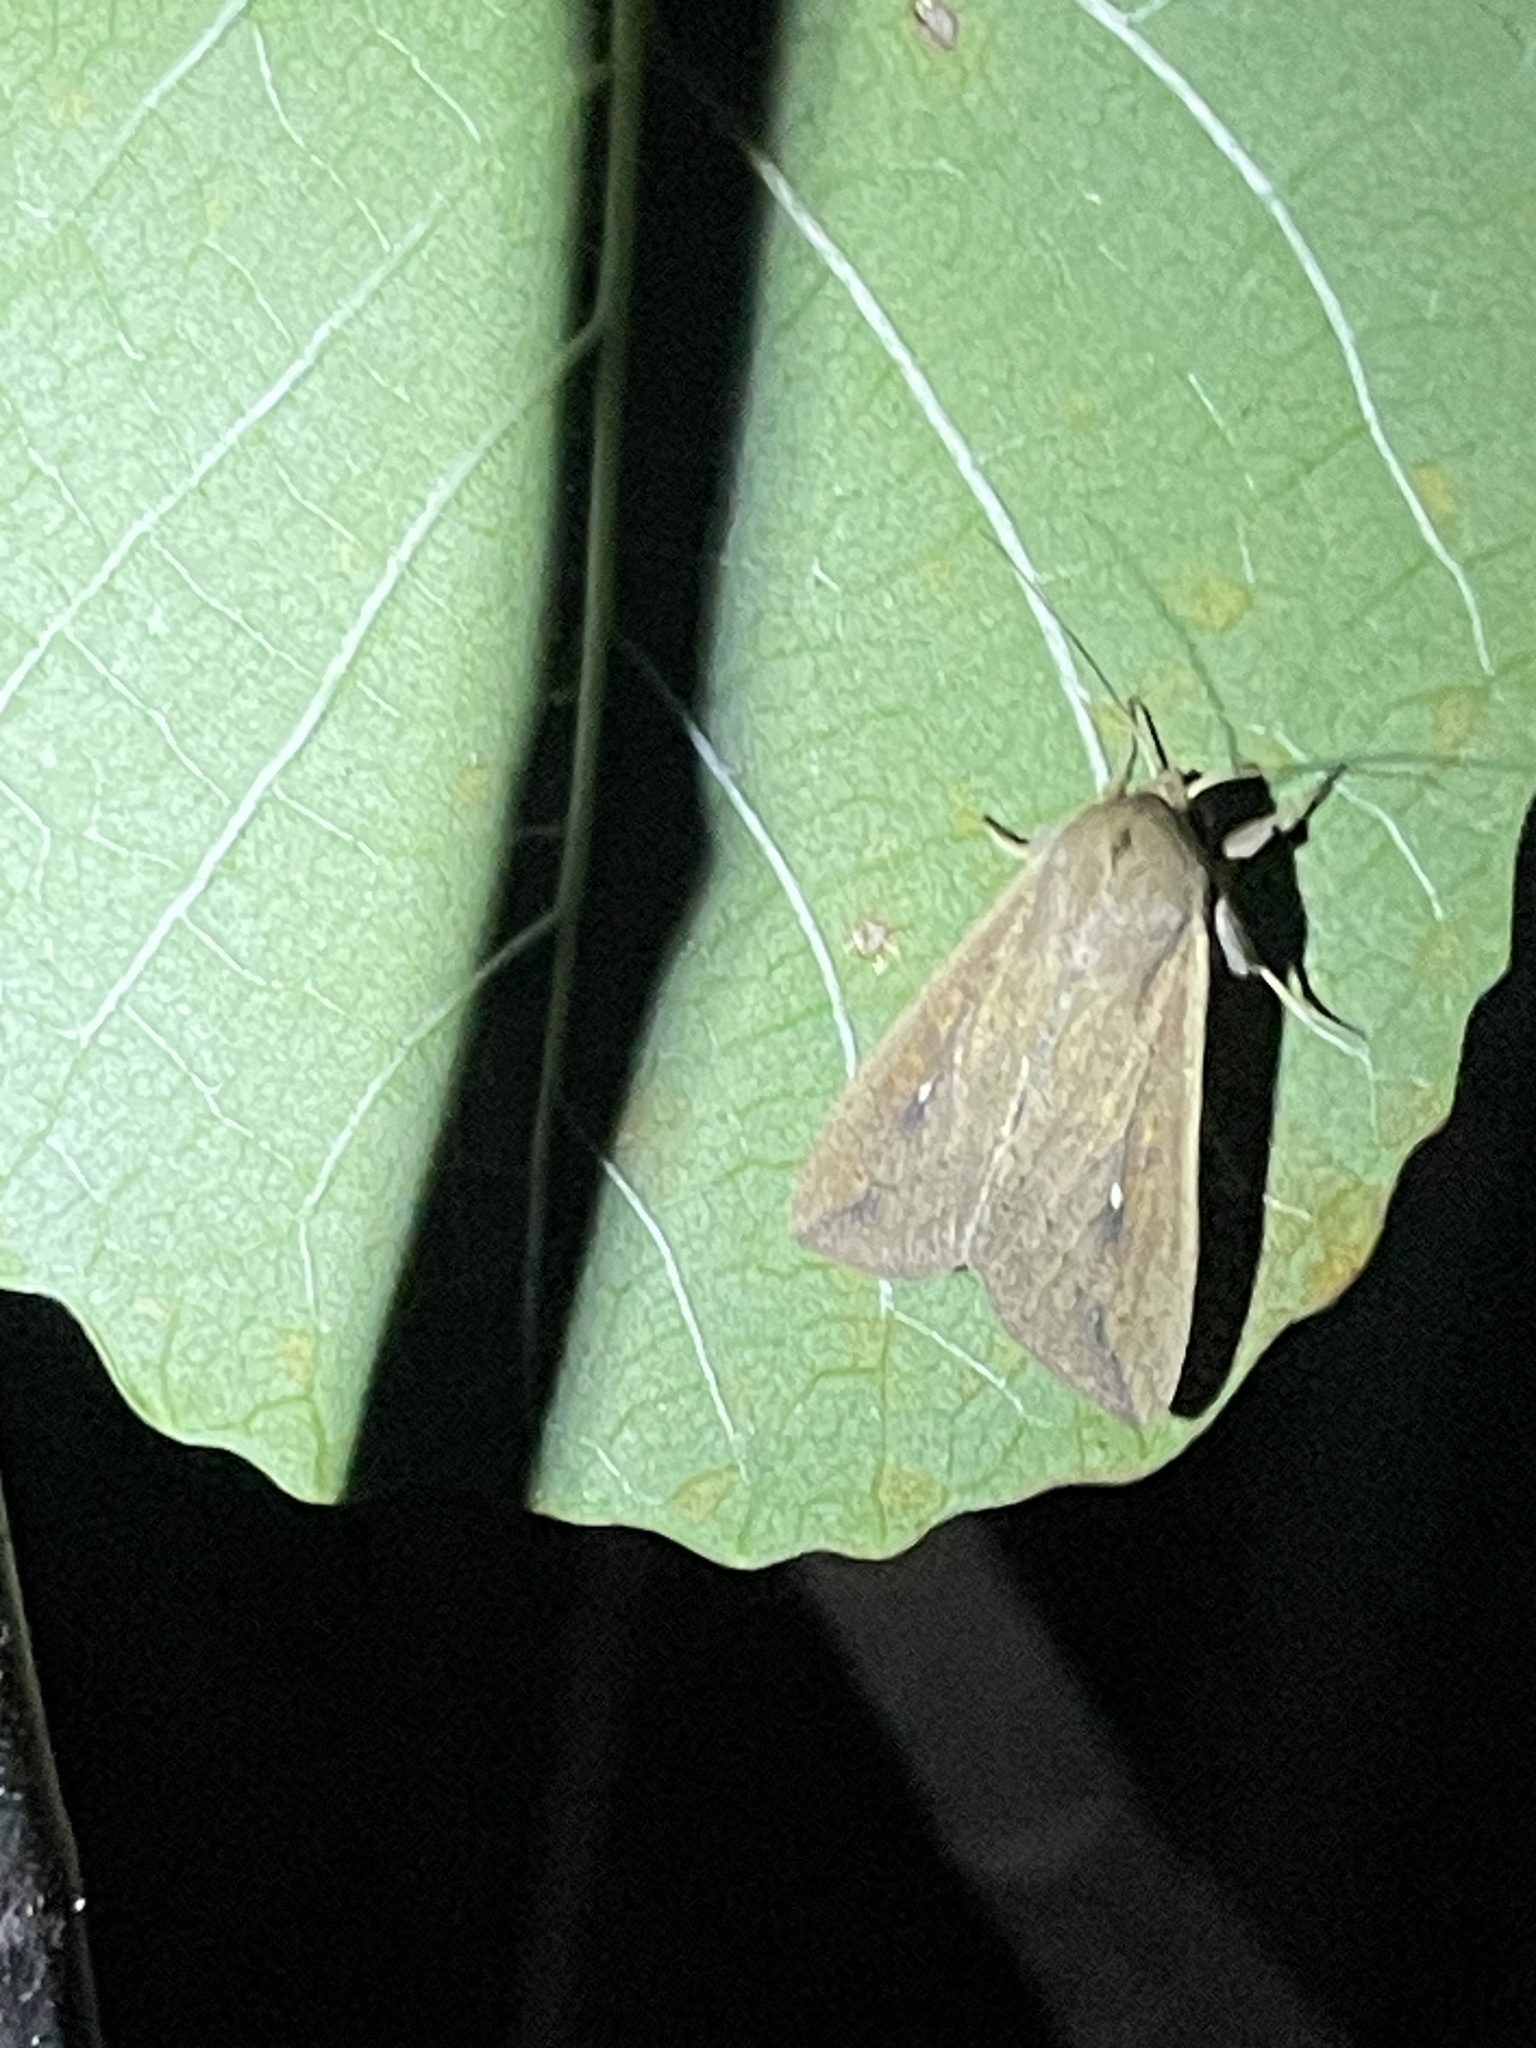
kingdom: Animalia
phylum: Arthropoda
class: Insecta
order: Lepidoptera
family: Noctuidae
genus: Mythimna
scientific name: Mythimna unipuncta
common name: White-speck
